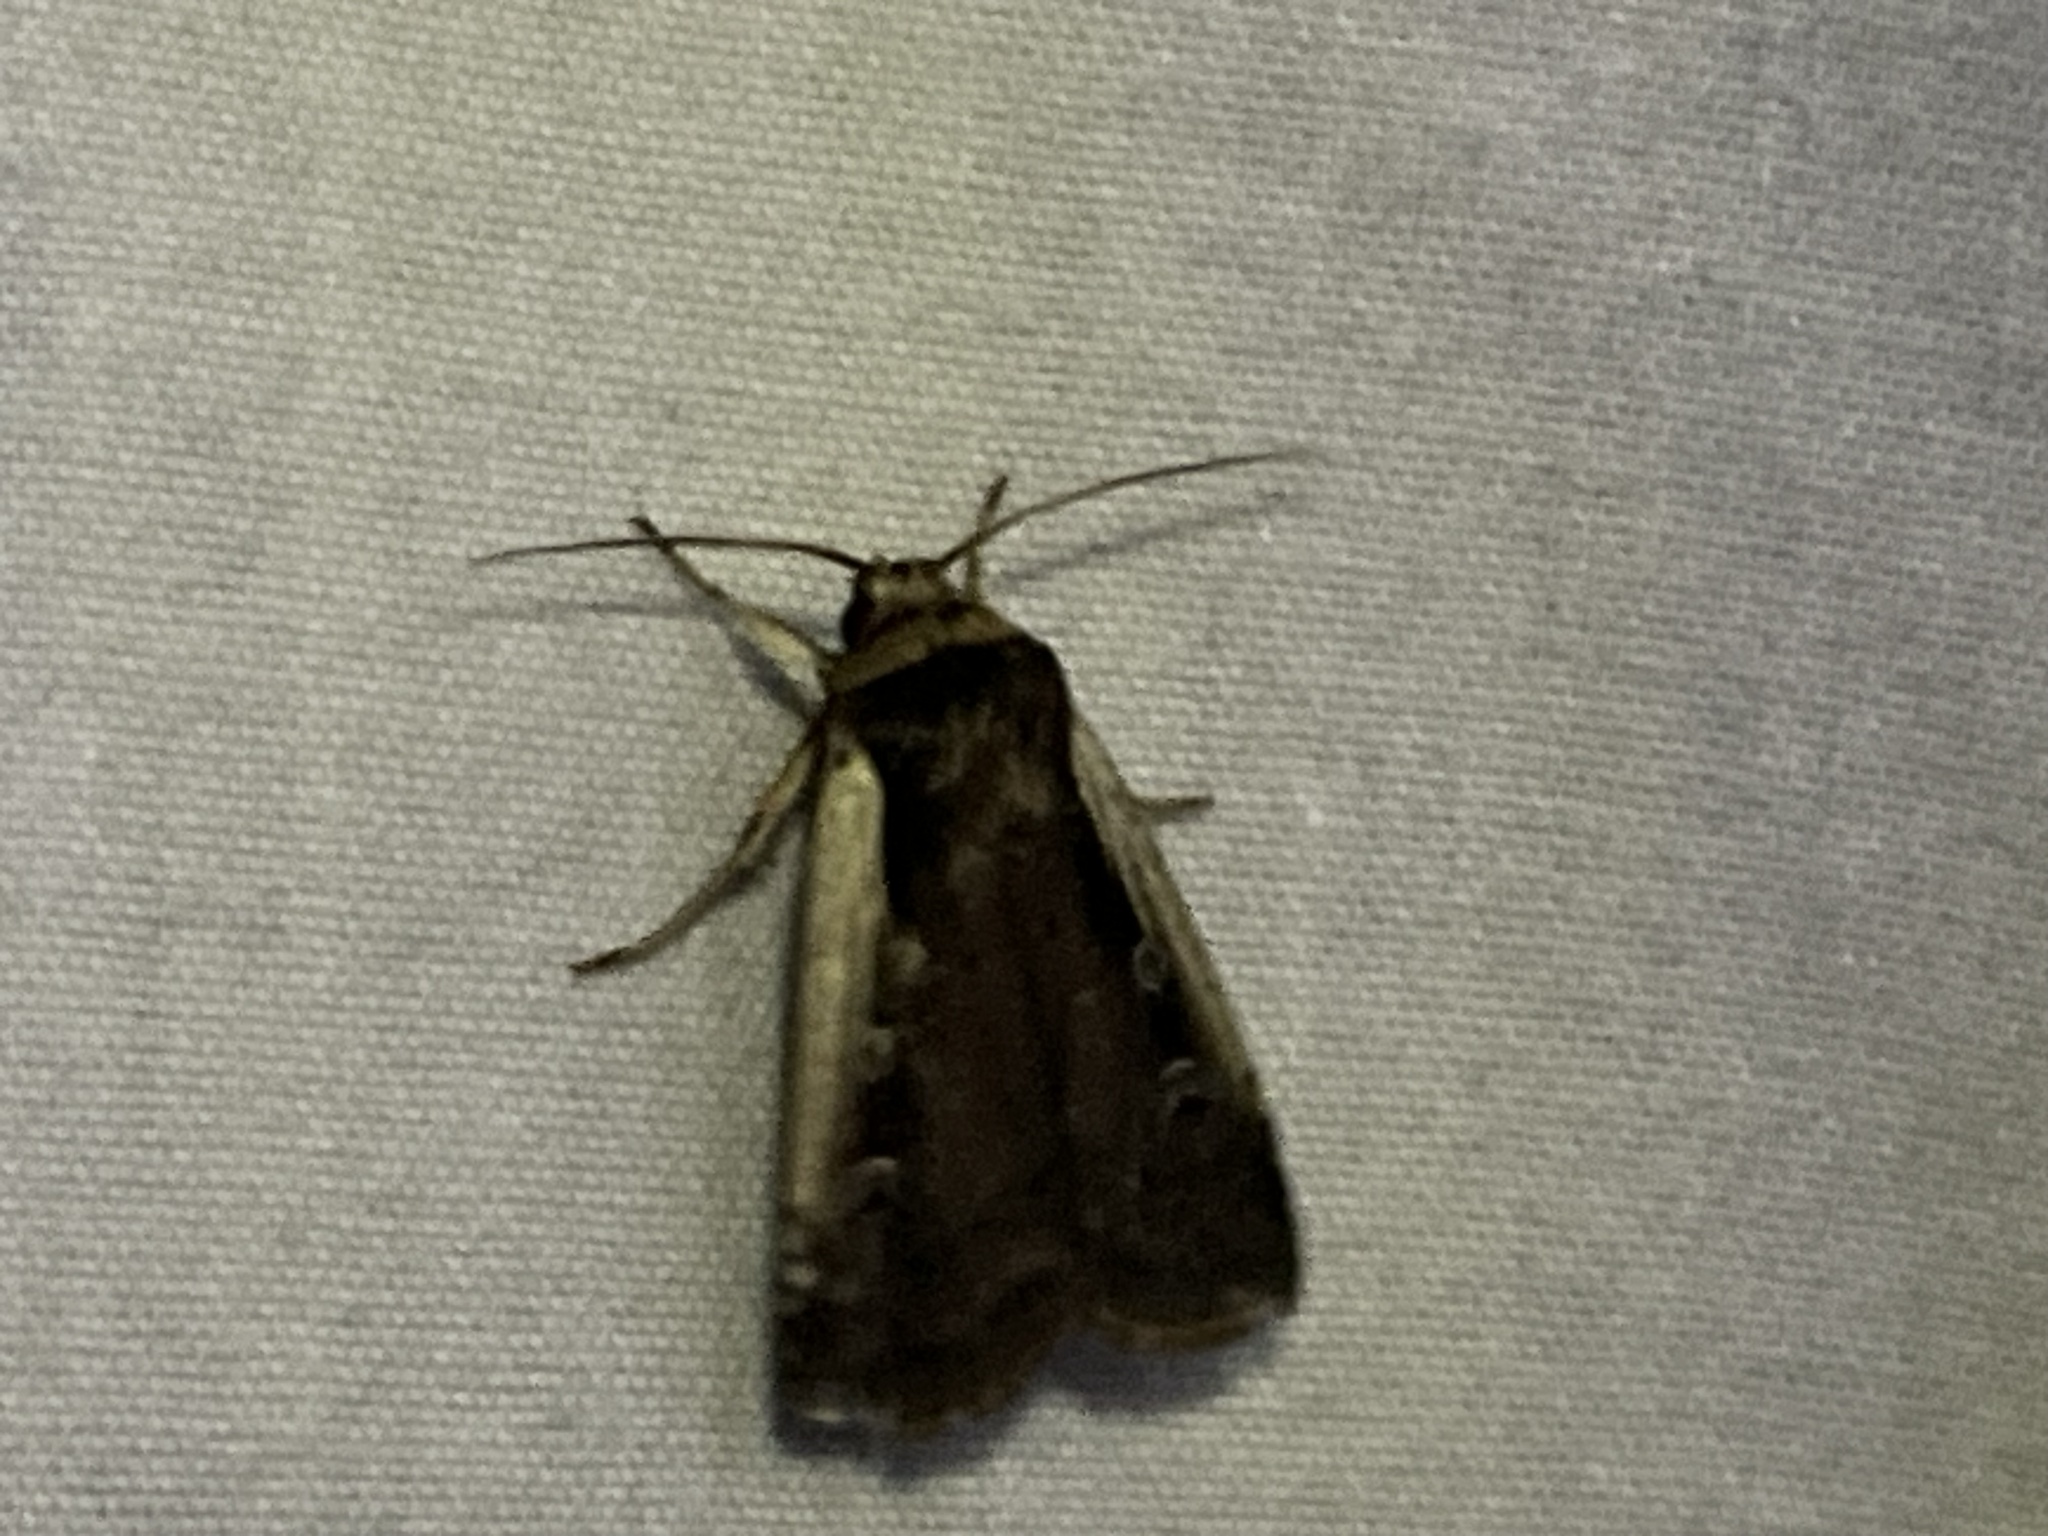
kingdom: Animalia
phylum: Arthropoda
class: Insecta
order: Lepidoptera
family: Noctuidae
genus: Ochropleura
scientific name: Ochropleura implecta
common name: Flame-shouldered dart
